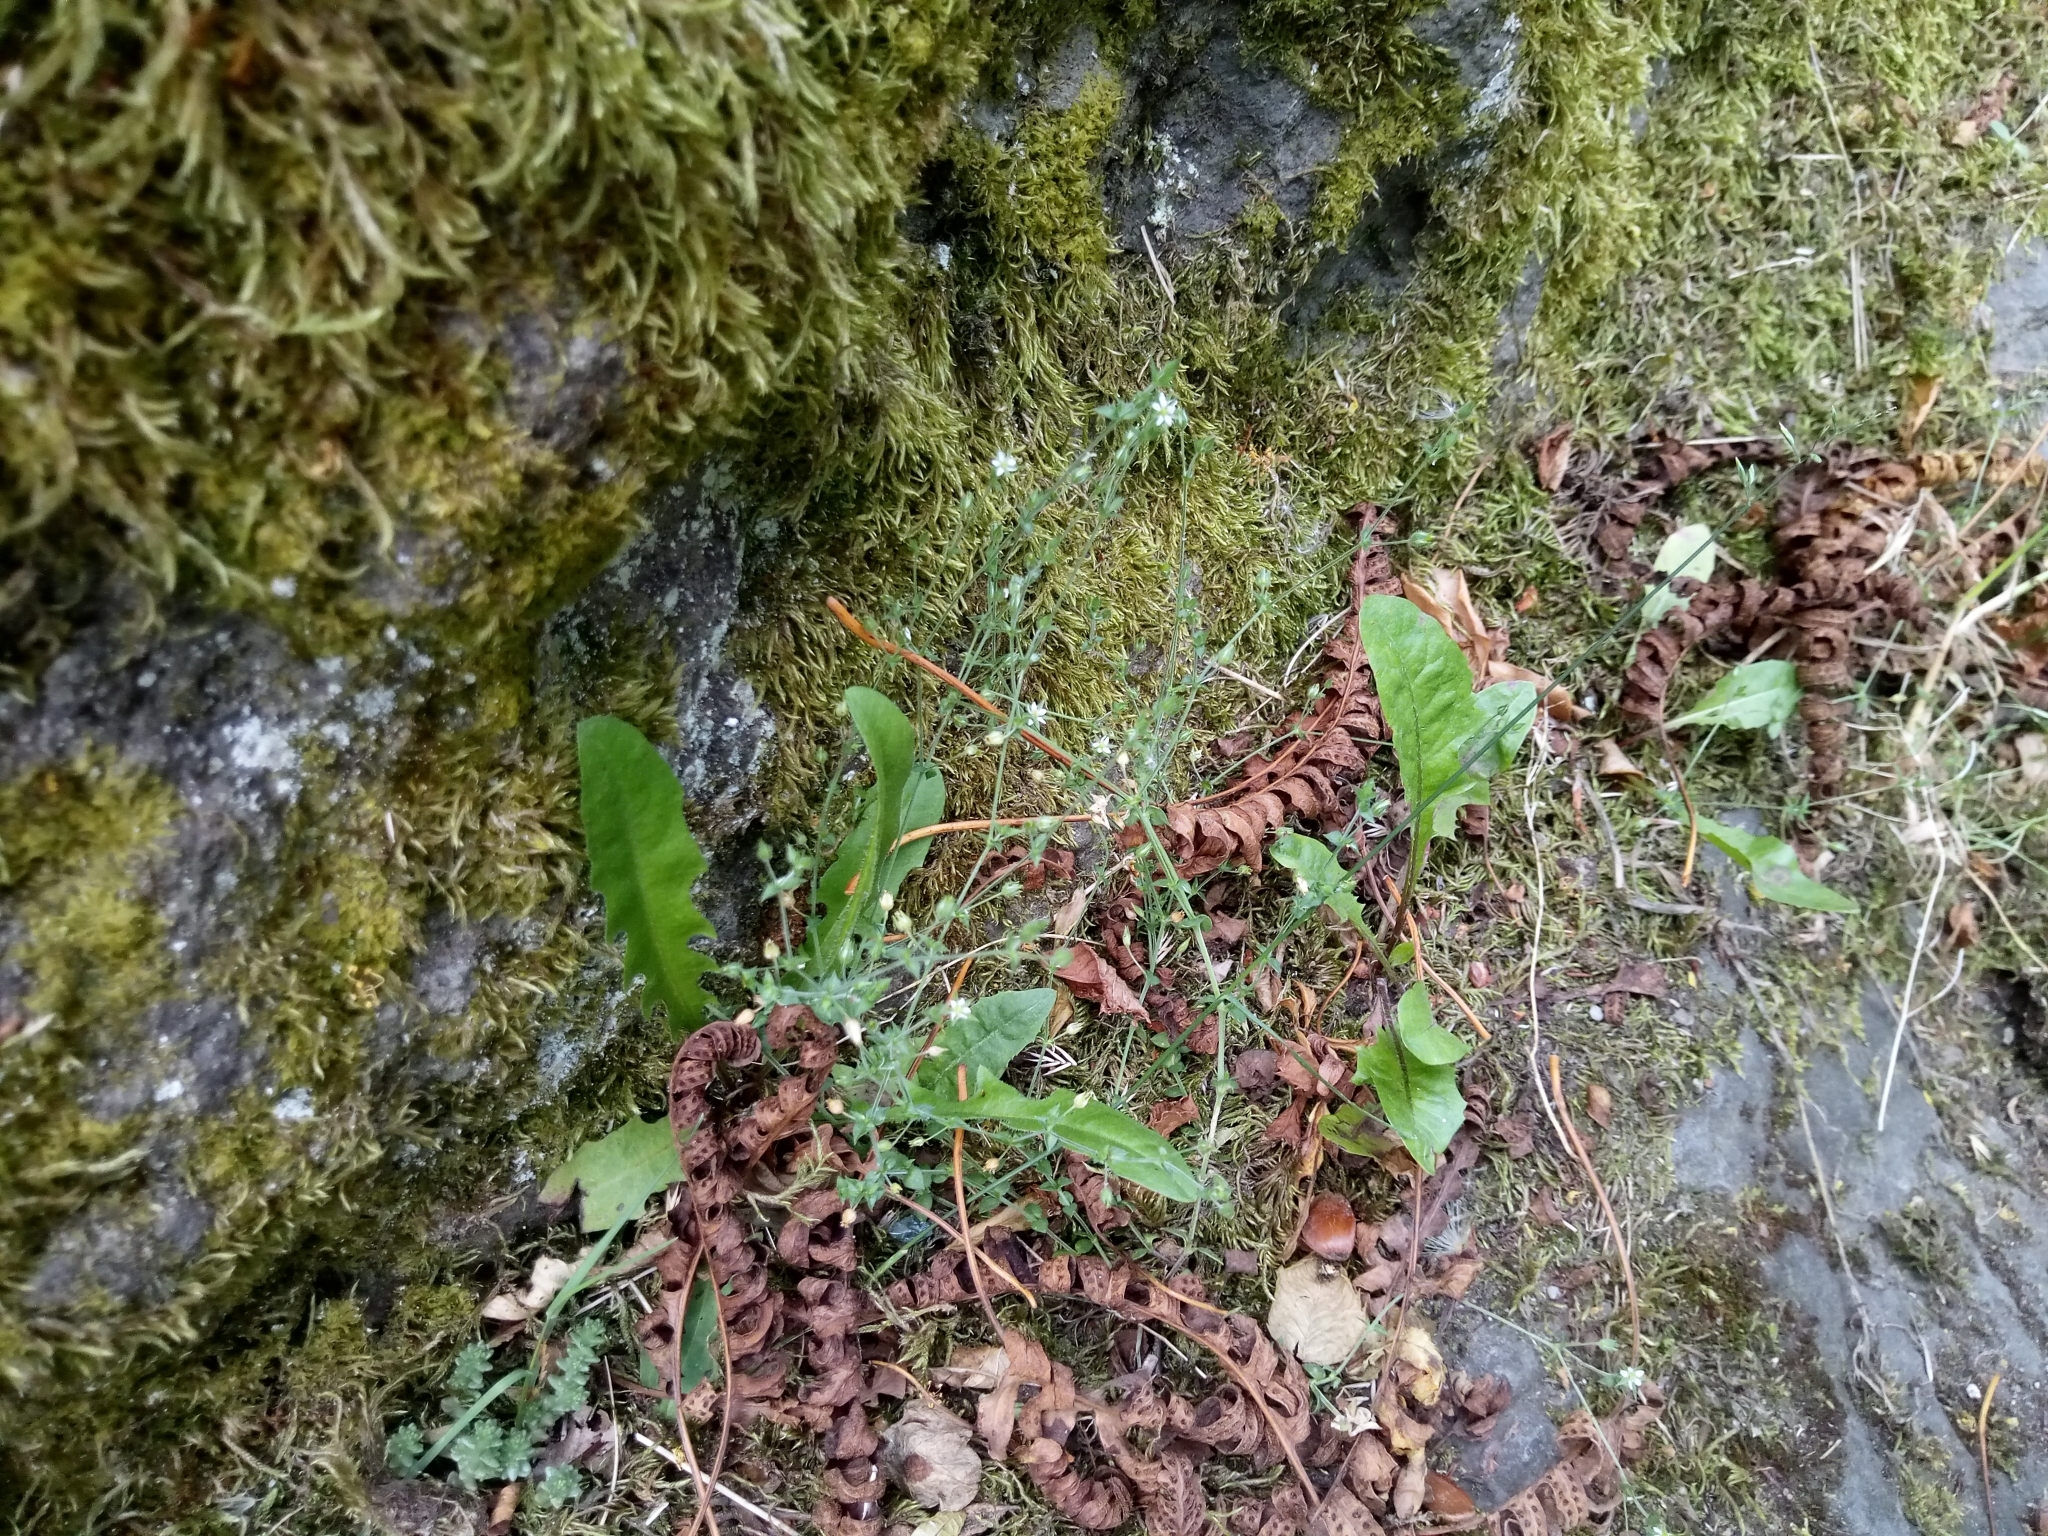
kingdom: Plantae
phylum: Tracheophyta
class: Magnoliopsida
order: Caryophyllales
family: Caryophyllaceae
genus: Arenaria
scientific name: Arenaria serpyllifolia
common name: Thyme-leaved sandwort
